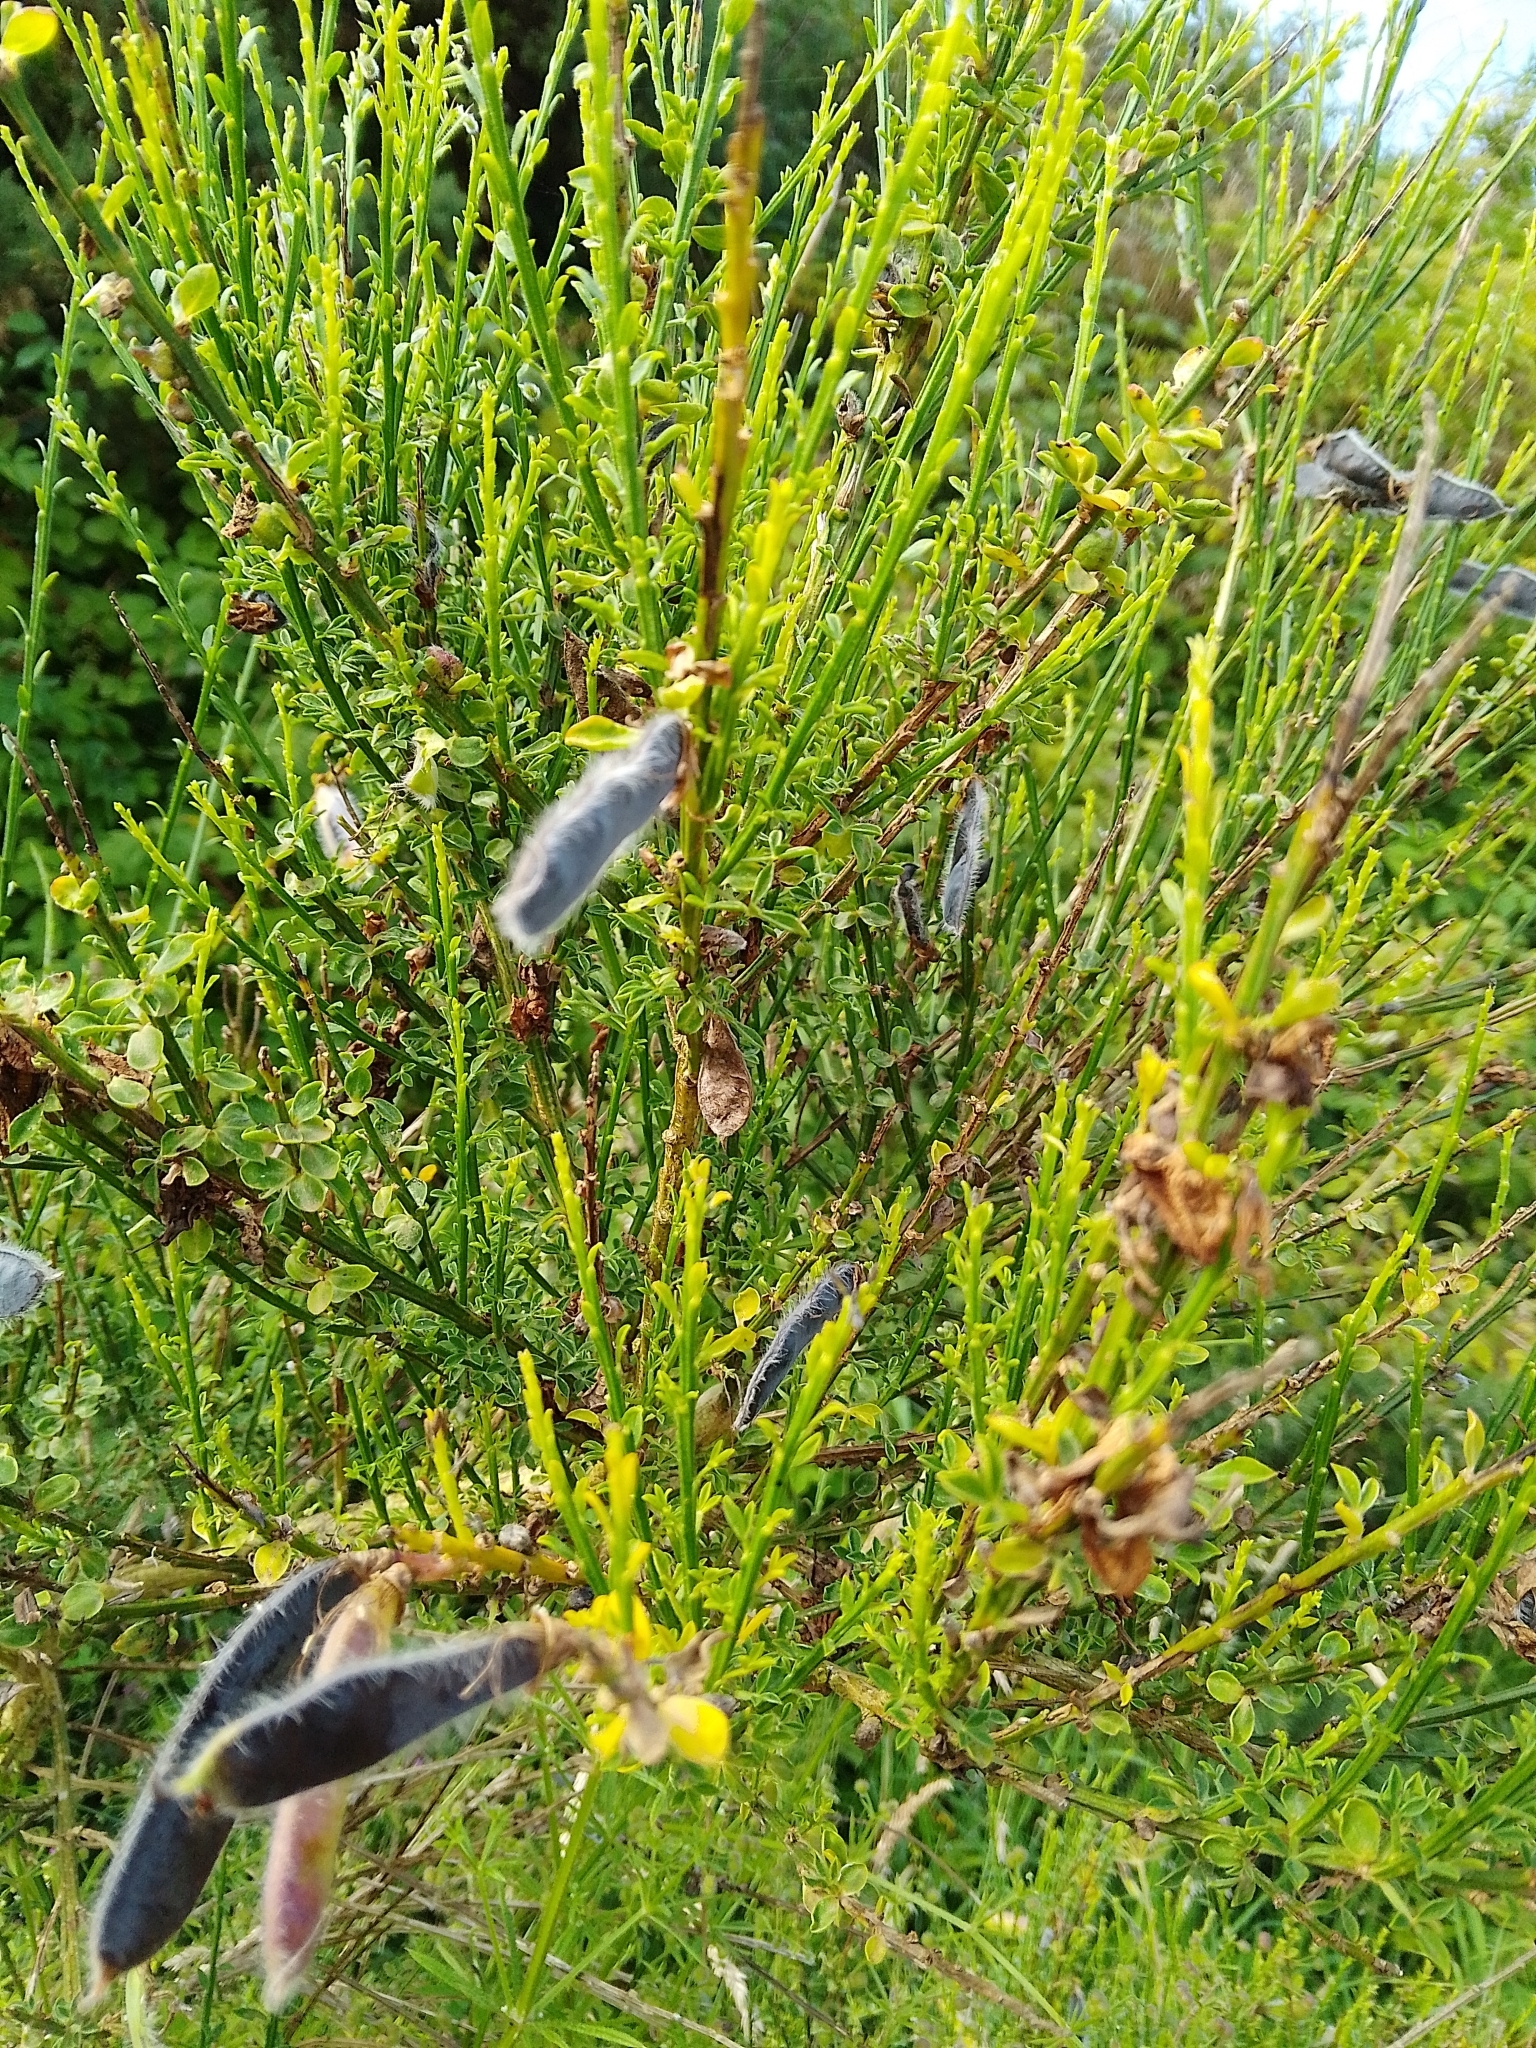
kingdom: Plantae
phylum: Tracheophyta
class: Magnoliopsida
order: Fabales
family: Fabaceae
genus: Cytisus
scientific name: Cytisus scoparius
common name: Scotch broom
